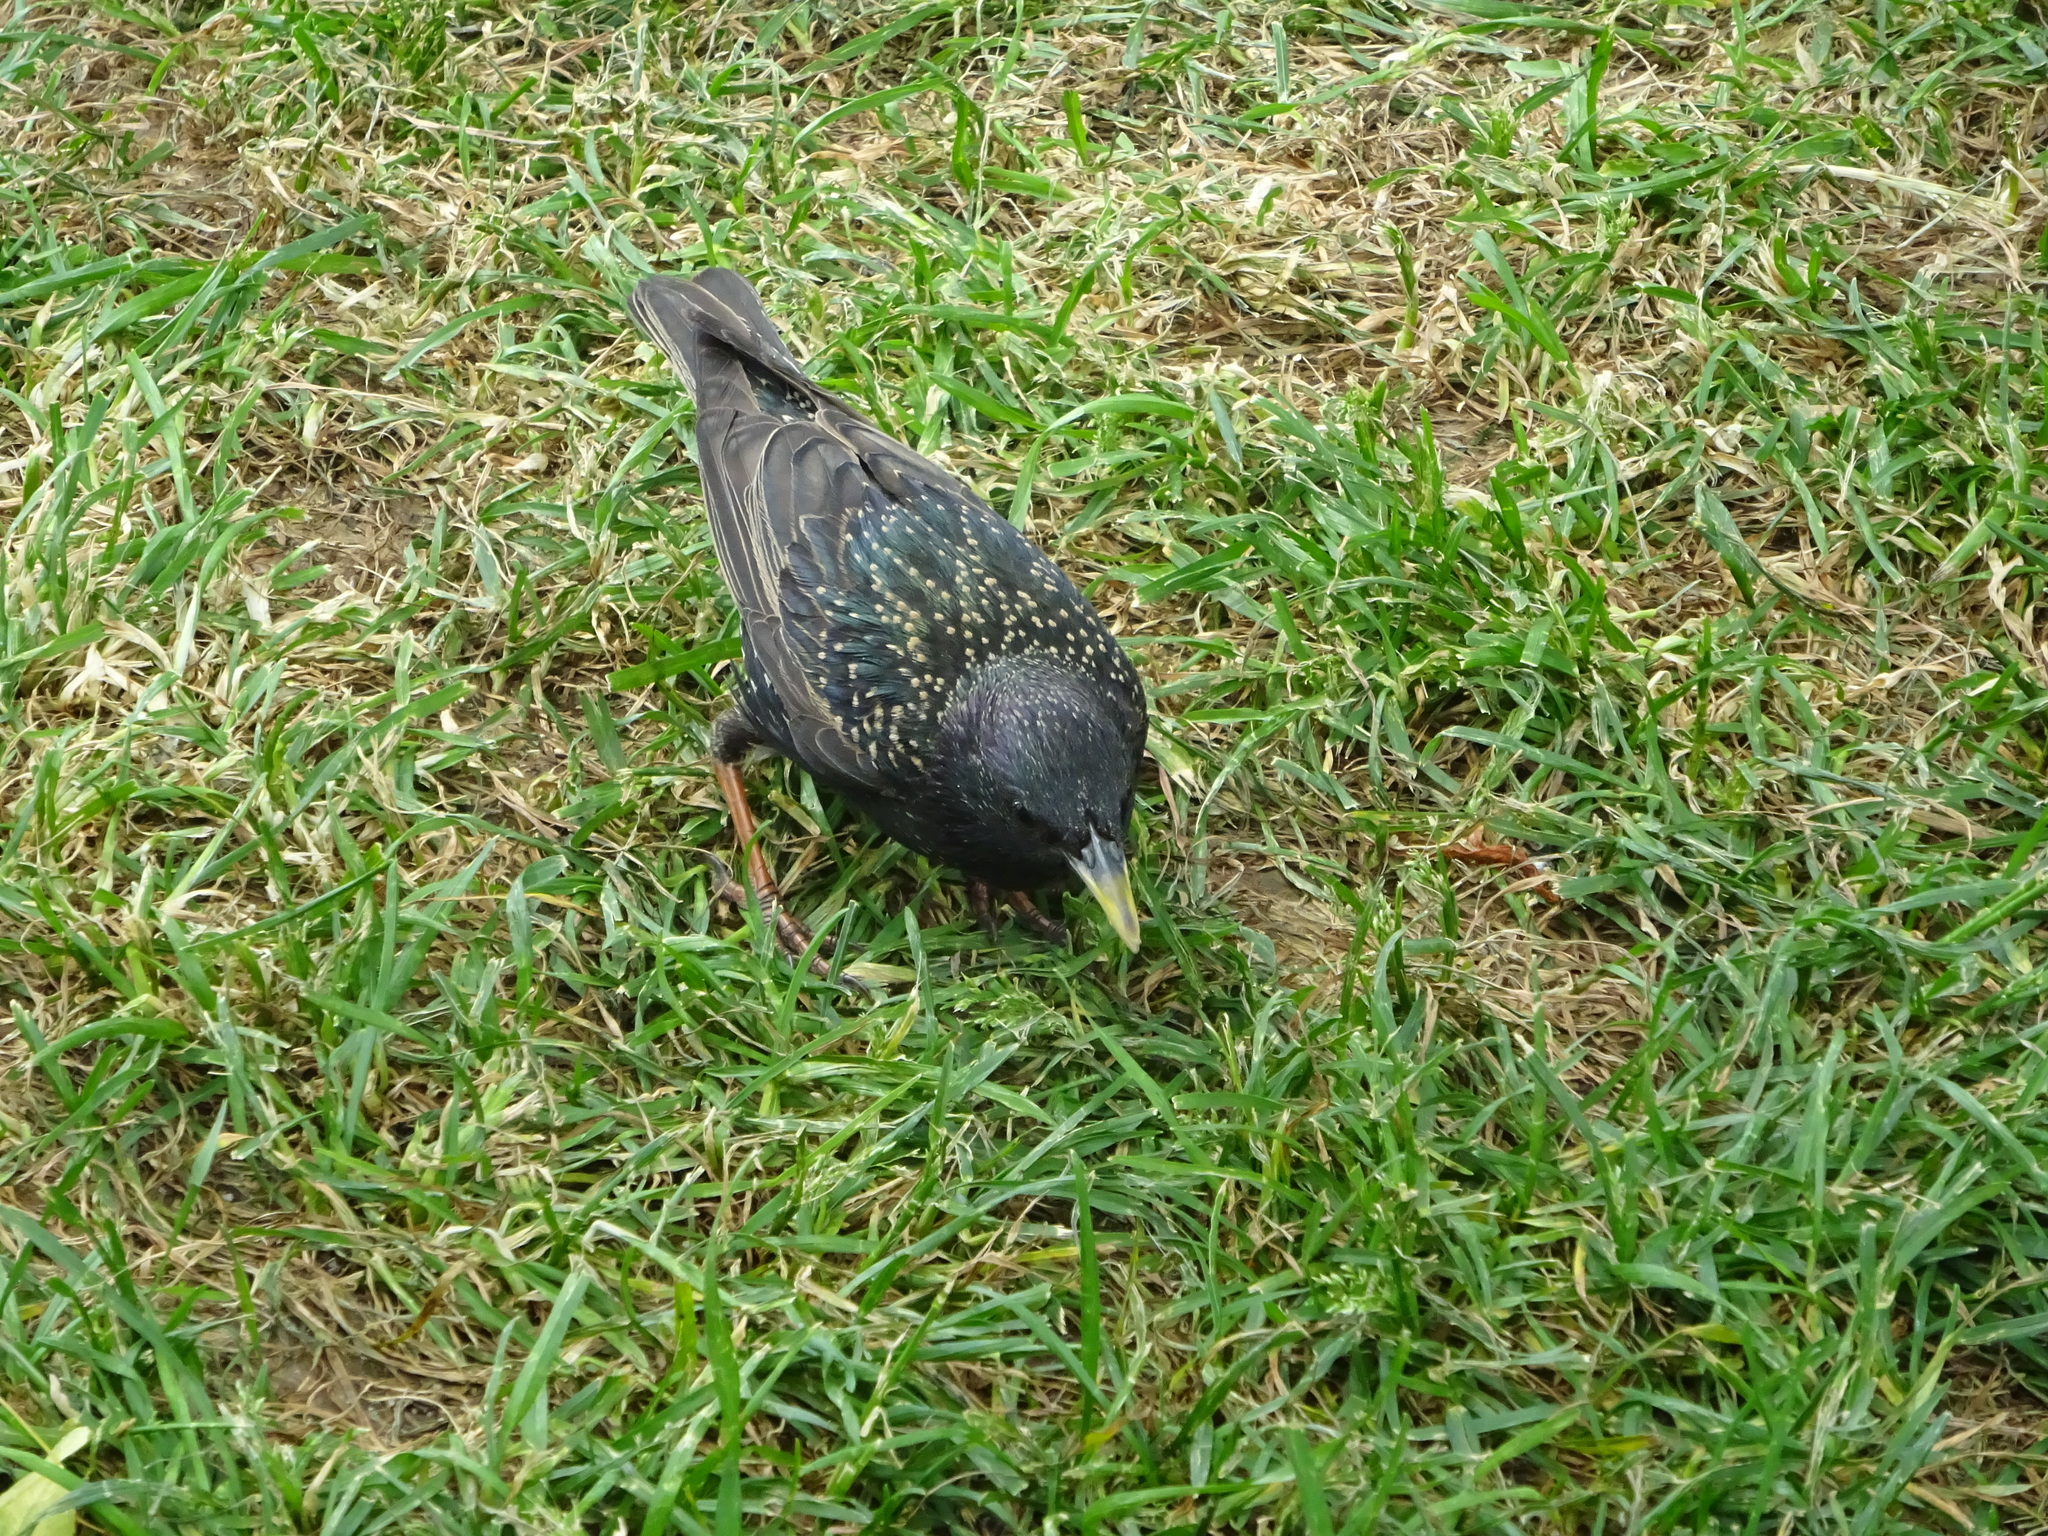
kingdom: Animalia
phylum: Chordata
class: Aves
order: Passeriformes
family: Sturnidae
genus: Sturnus
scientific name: Sturnus vulgaris
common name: Common starling
